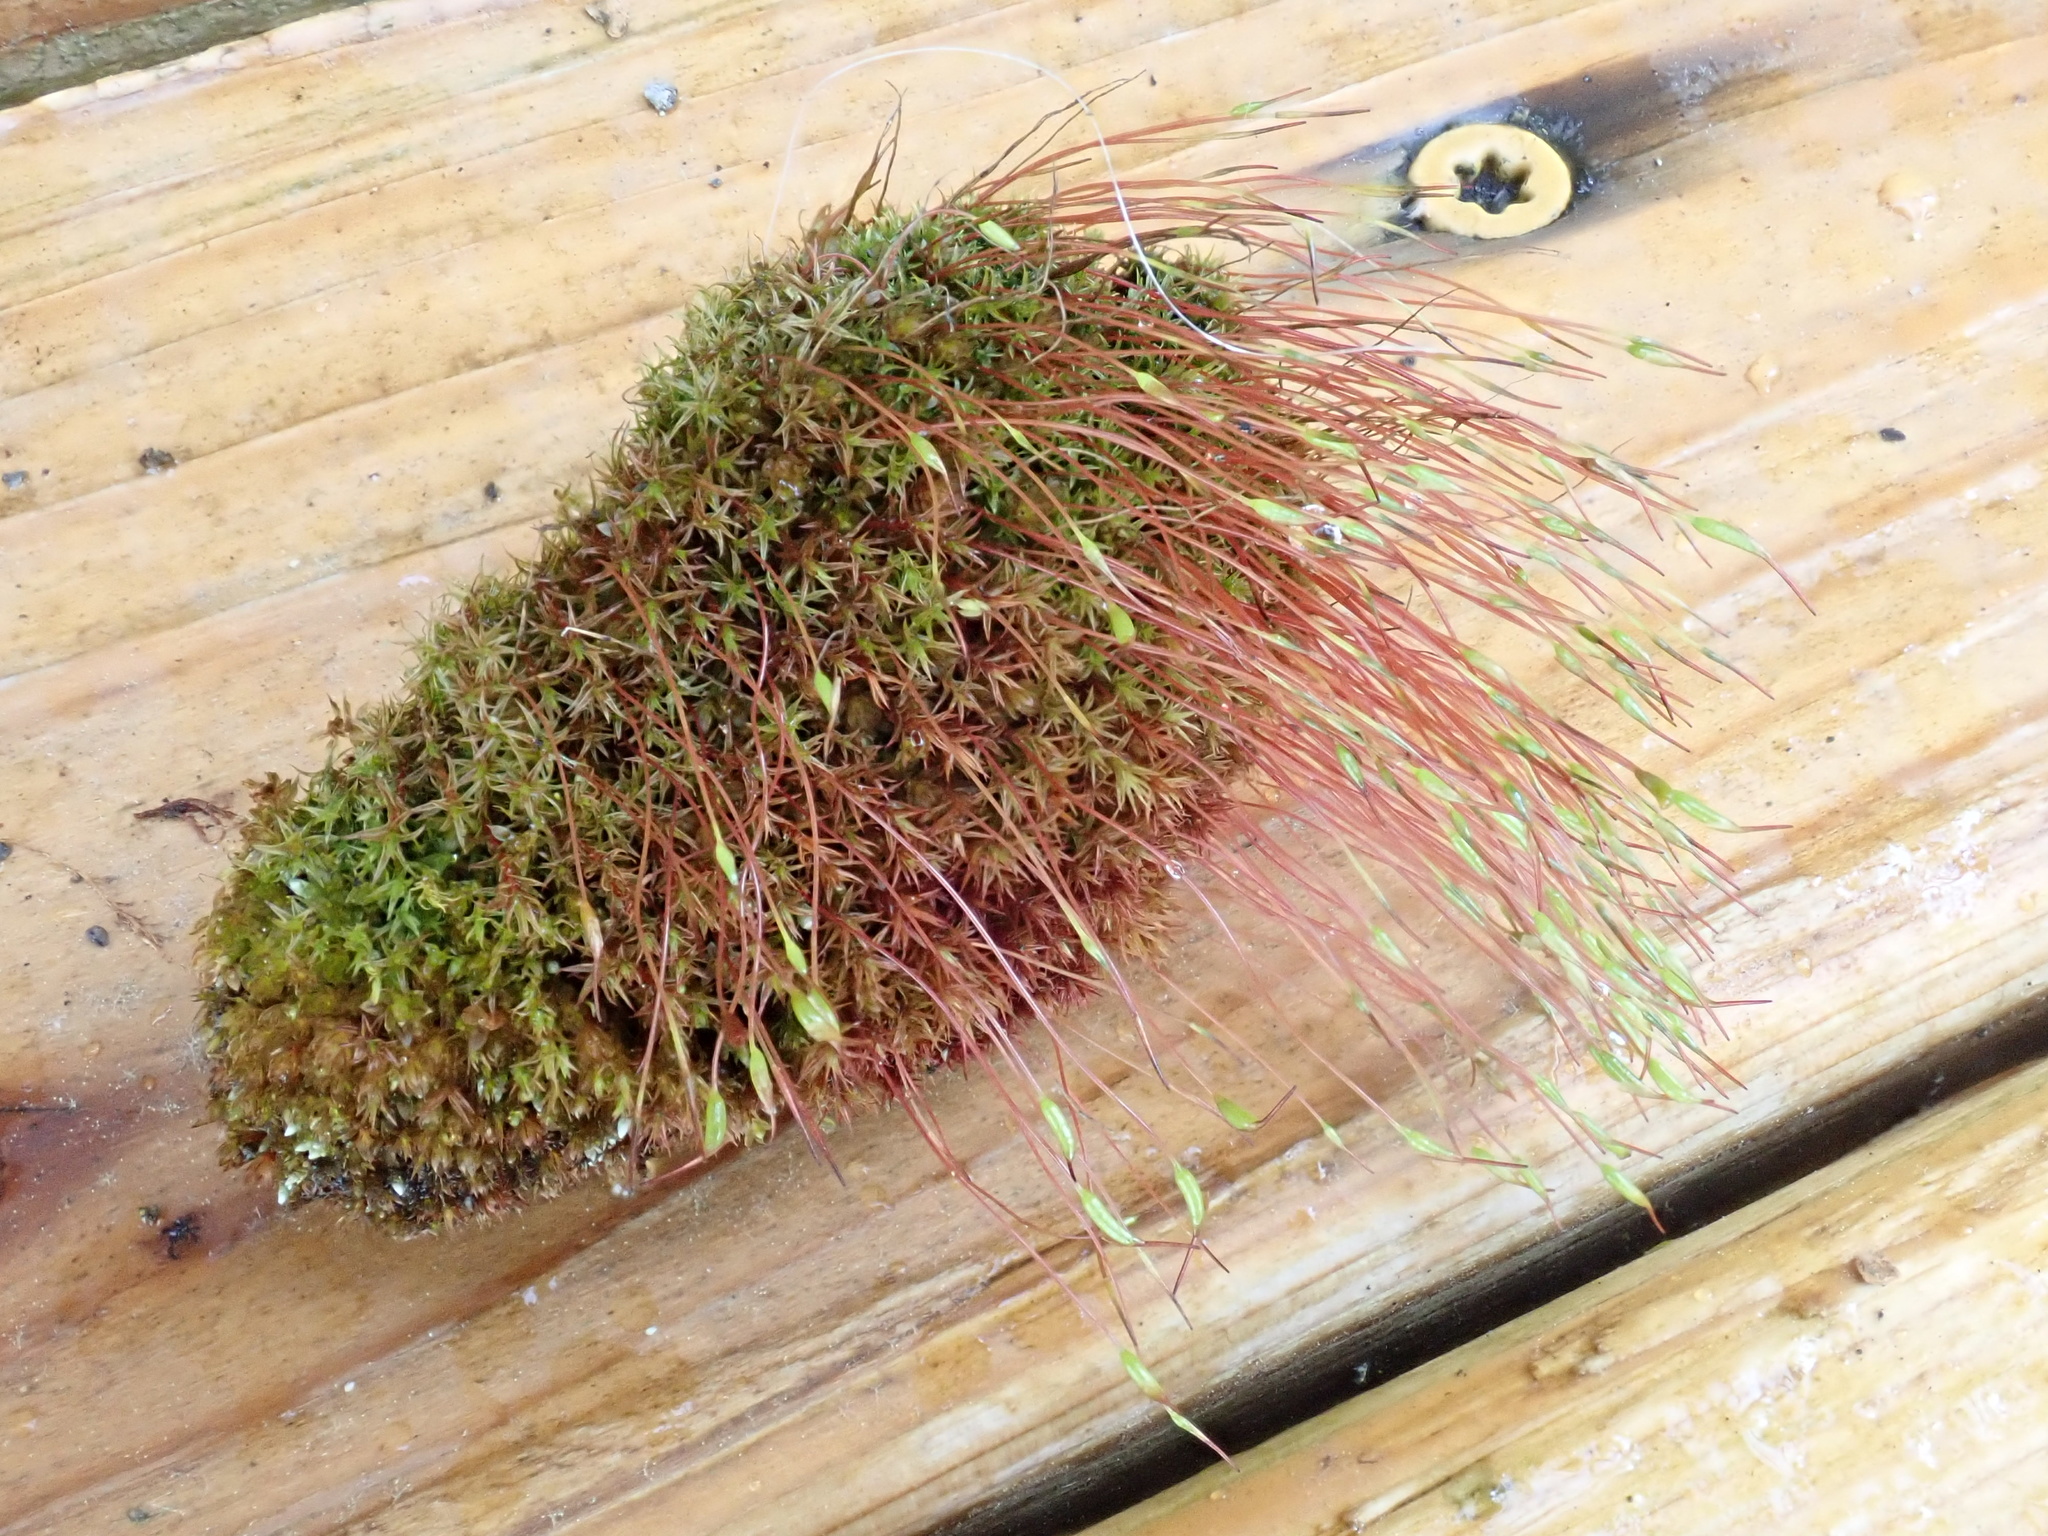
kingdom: Plantae
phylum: Bryophyta
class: Bryopsida
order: Dicranales
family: Ditrichaceae
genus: Ceratodon
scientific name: Ceratodon purpureus
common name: Redshank
